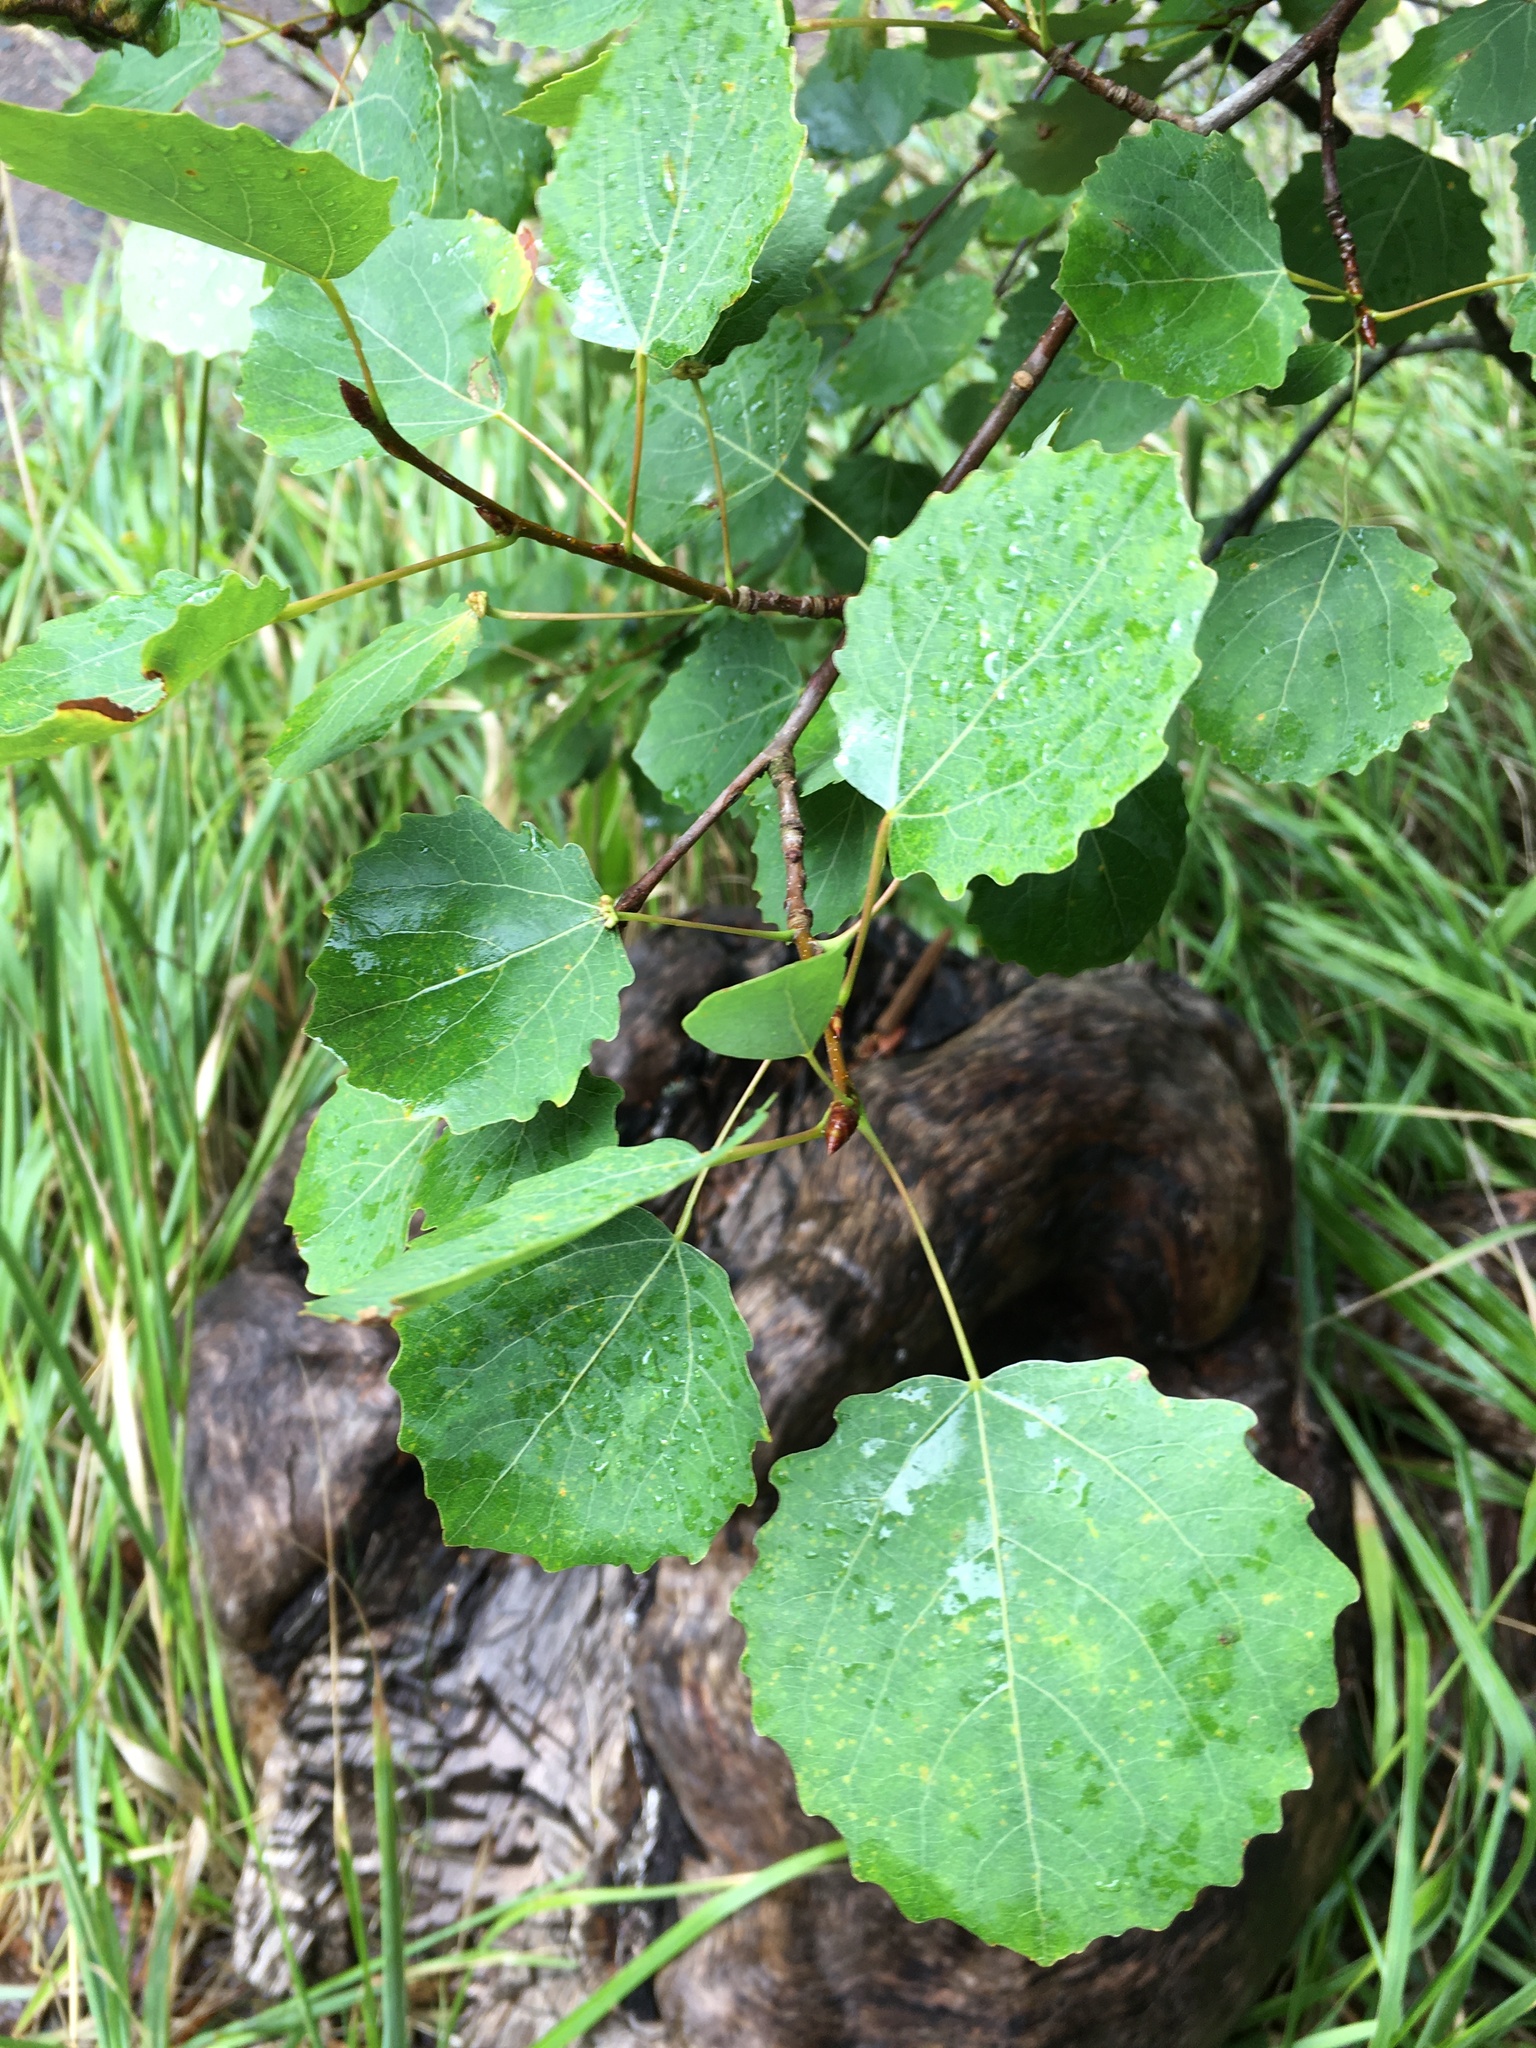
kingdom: Plantae
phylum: Tracheophyta
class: Magnoliopsida
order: Malpighiales
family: Salicaceae
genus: Populus
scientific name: Populus tremula
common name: European aspen
